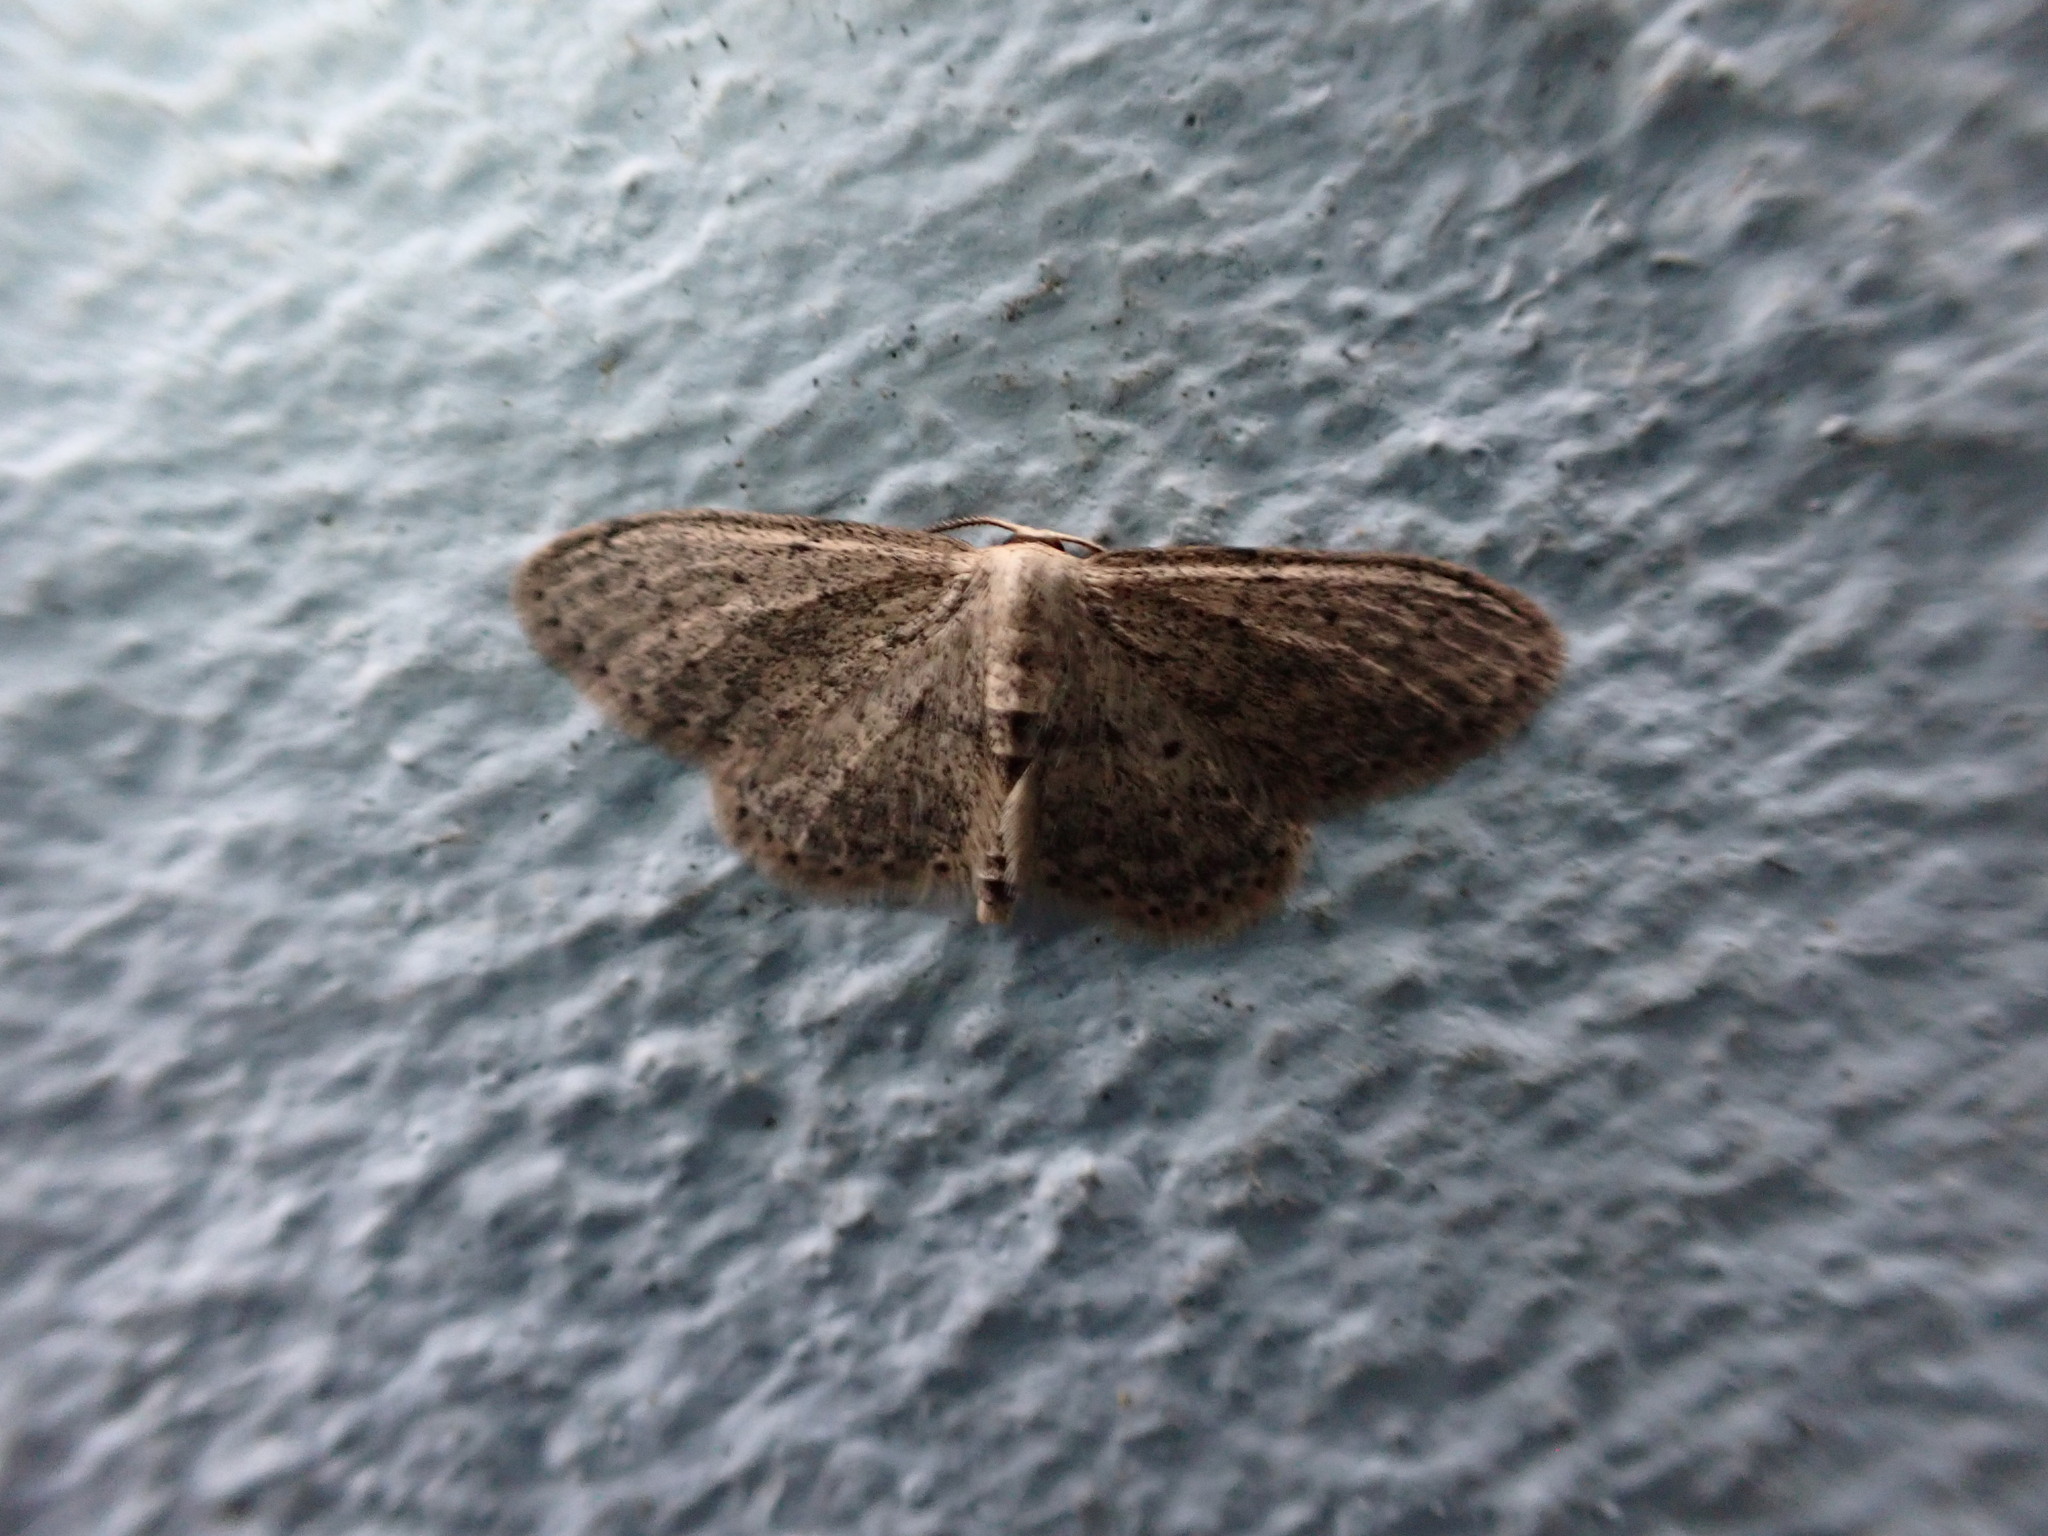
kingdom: Animalia
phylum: Arthropoda
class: Insecta
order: Lepidoptera
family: Geometridae
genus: Idaea
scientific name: Idaea seriata
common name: Small dusty wave
